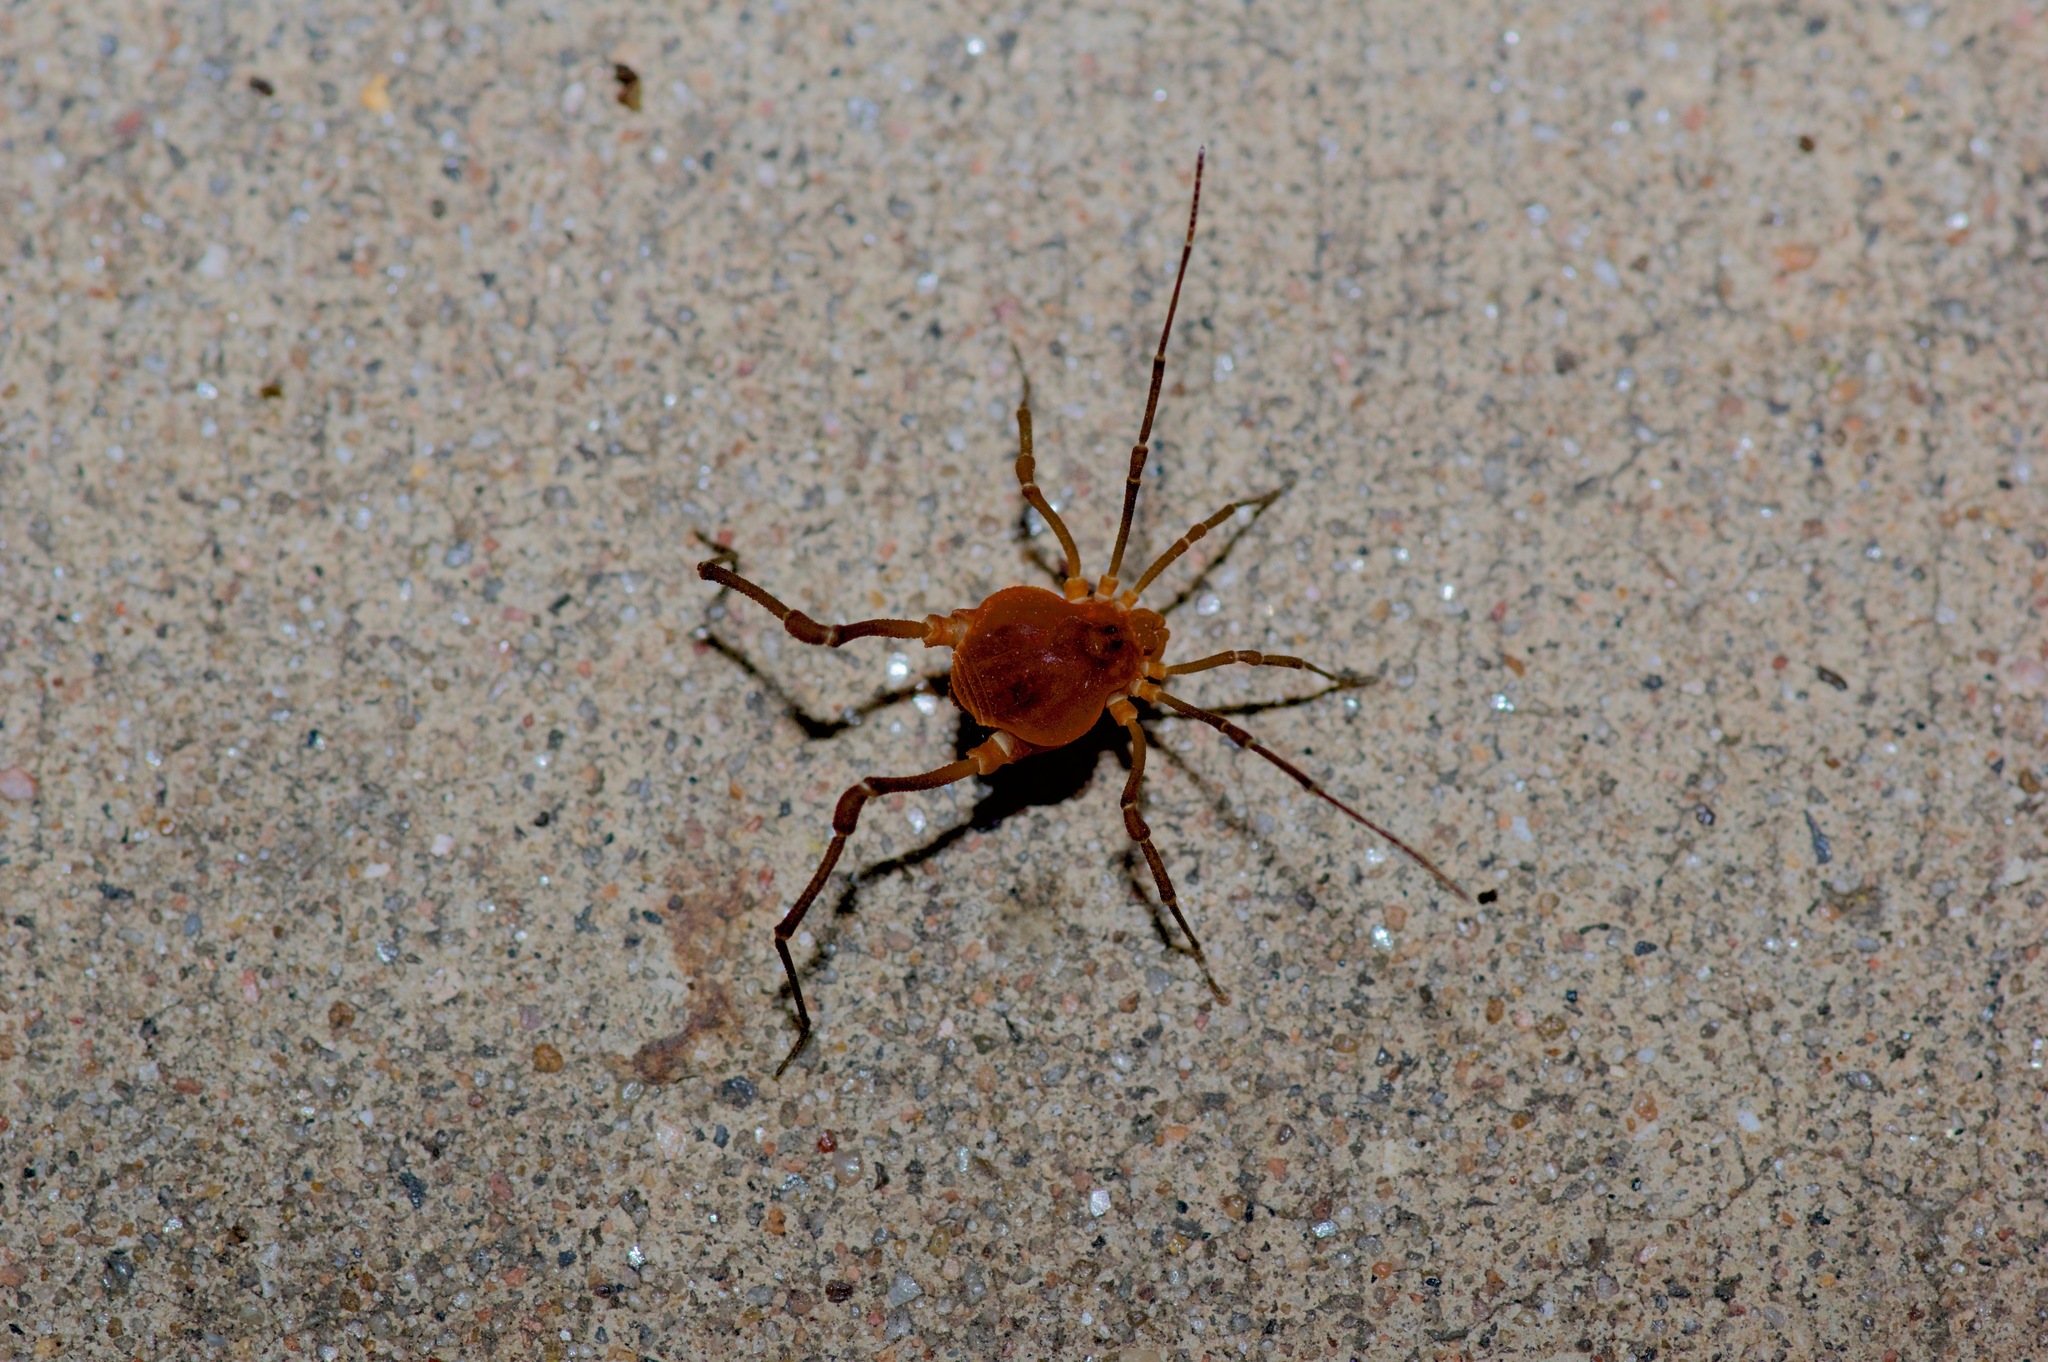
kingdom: Animalia
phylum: Arthropoda
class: Arachnida
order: Opiliones
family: Cosmetidae
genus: Libitioides
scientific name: Libitioides sayi
